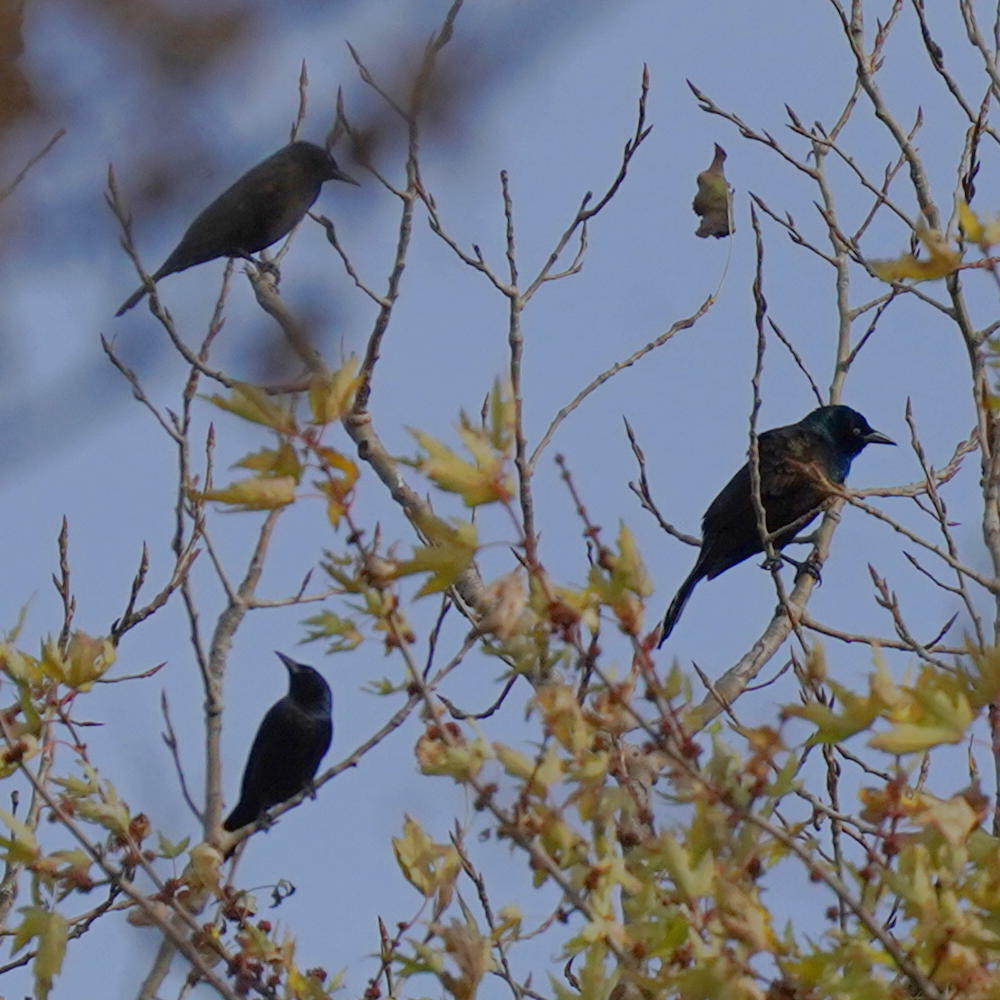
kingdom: Animalia
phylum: Chordata
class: Aves
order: Passeriformes
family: Icteridae
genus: Quiscalus
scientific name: Quiscalus quiscula
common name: Common grackle
